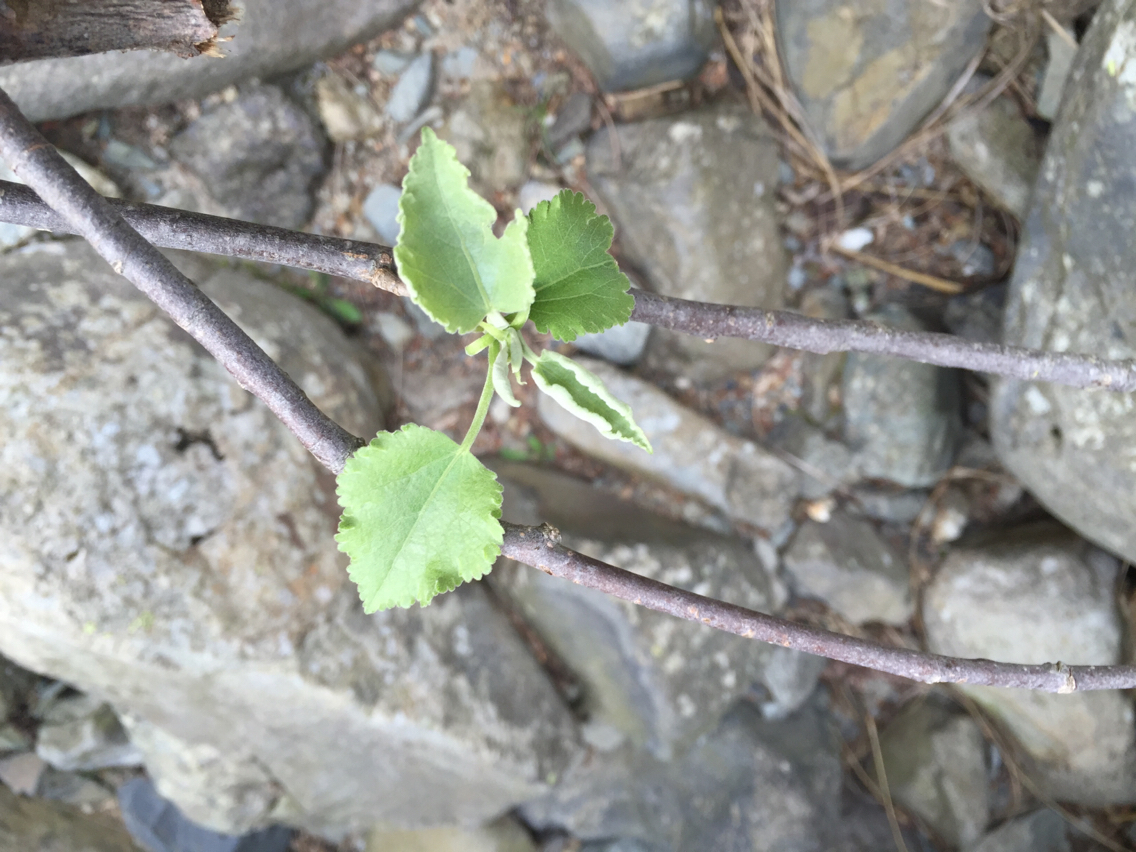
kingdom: Plantae
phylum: Tracheophyta
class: Magnoliopsida
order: Malvales
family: Malvaceae
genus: Hoheria
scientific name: Hoheria lyallii
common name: Lacebark
